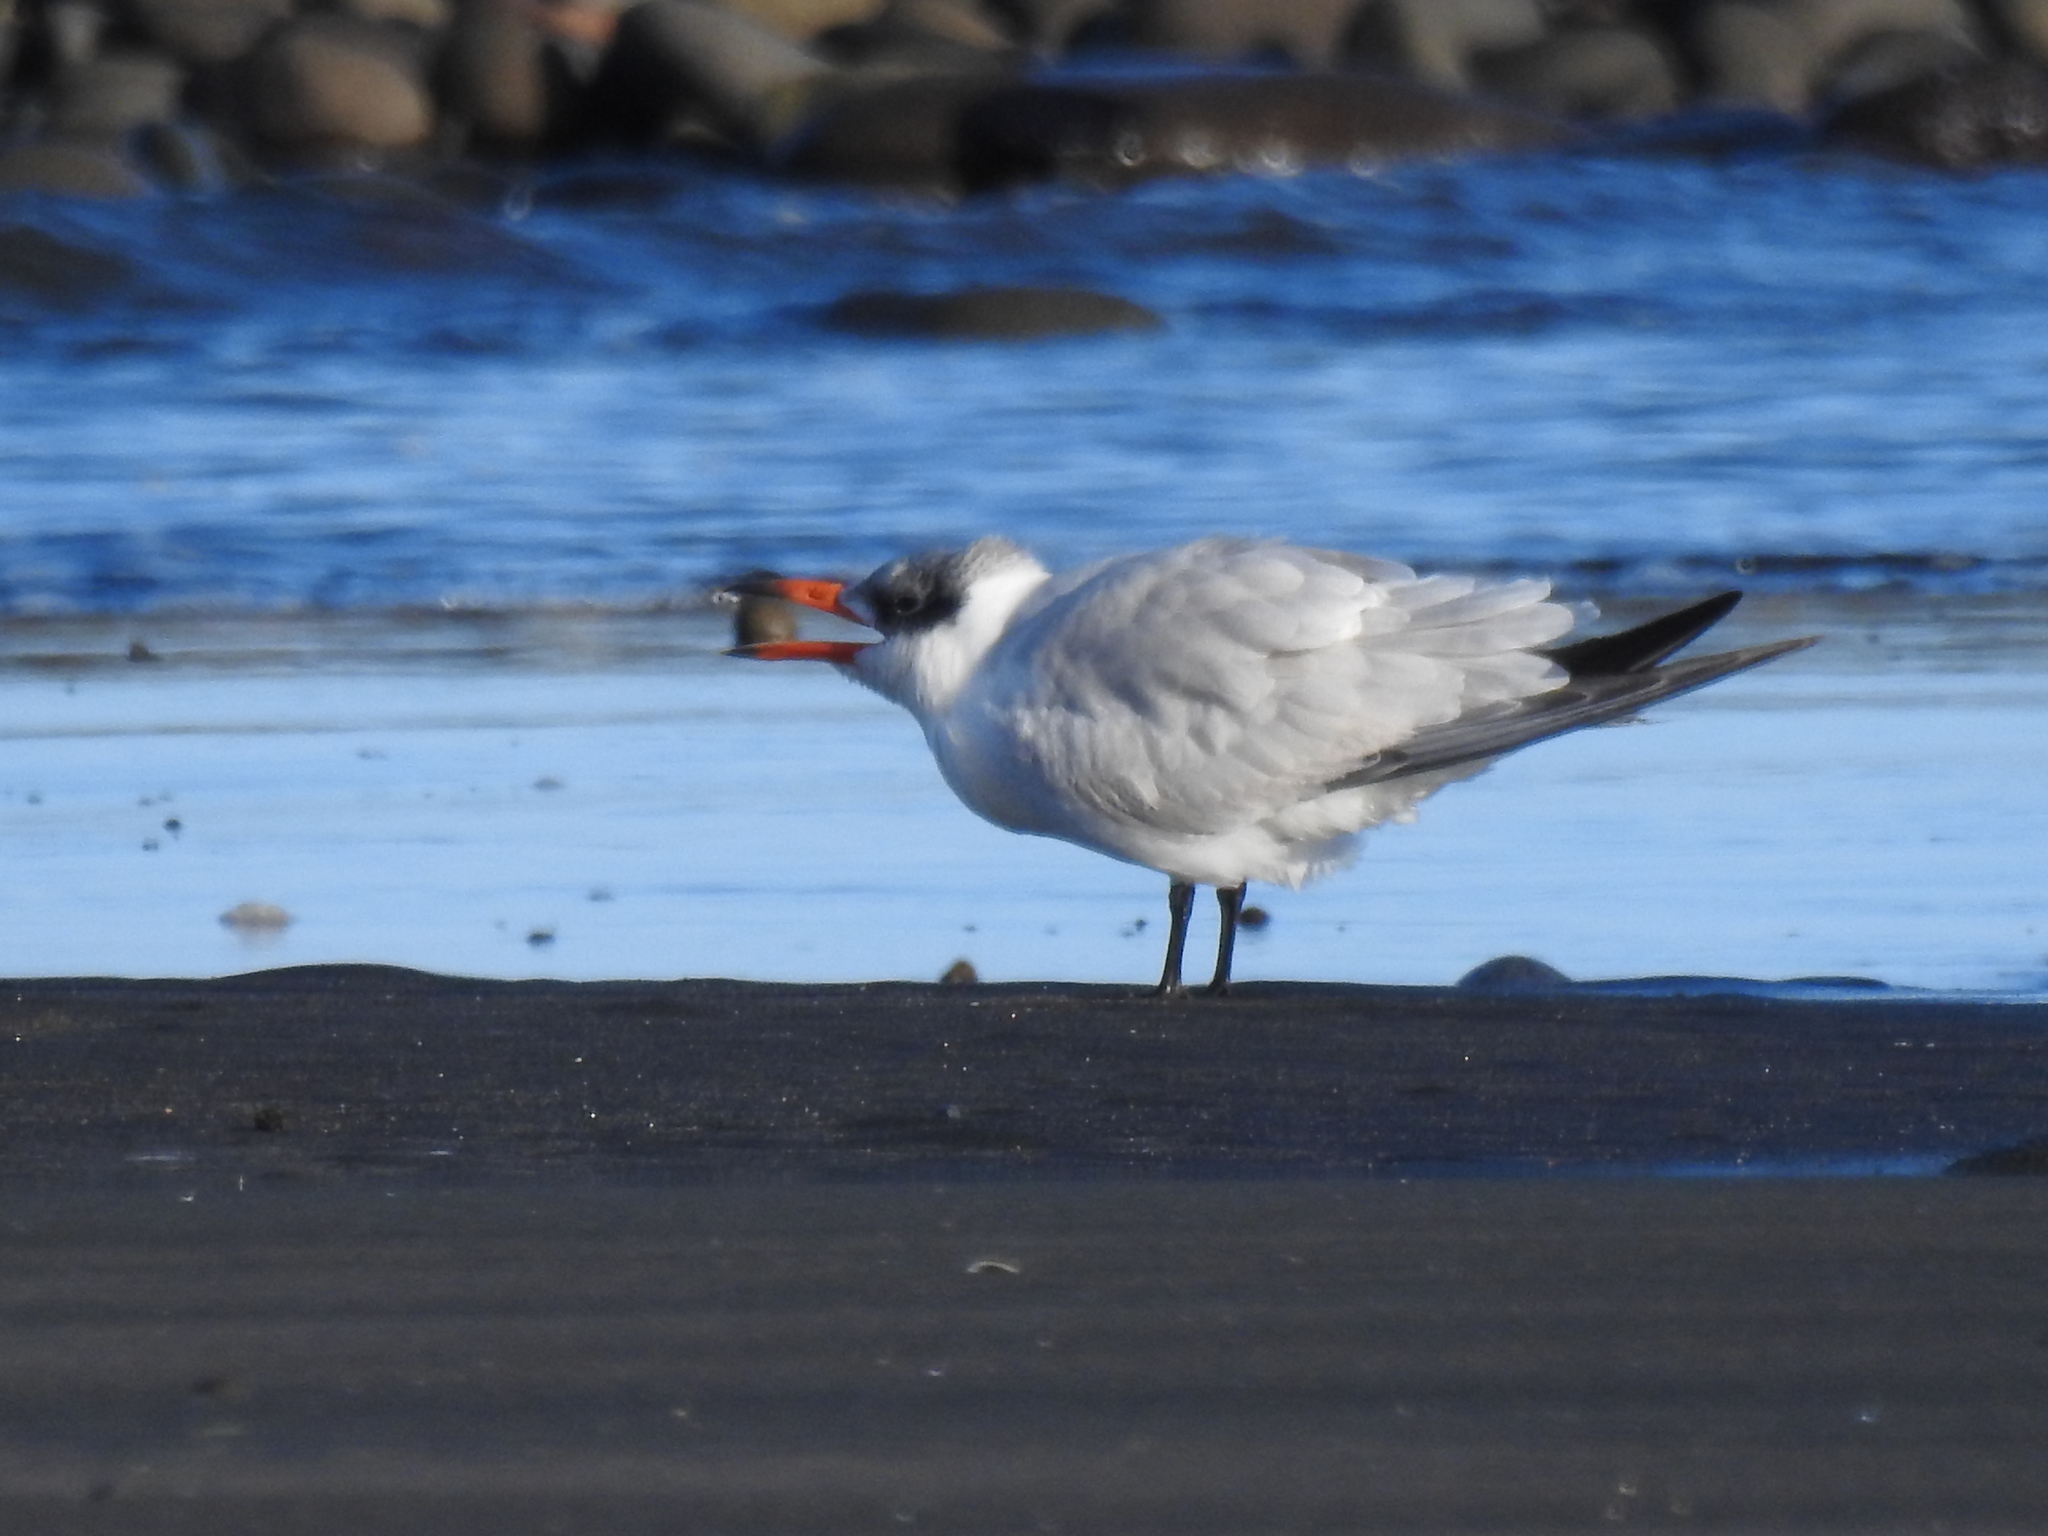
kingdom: Animalia
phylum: Chordata
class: Aves
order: Charadriiformes
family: Laridae
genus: Hydroprogne
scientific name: Hydroprogne caspia
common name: Caspian tern
